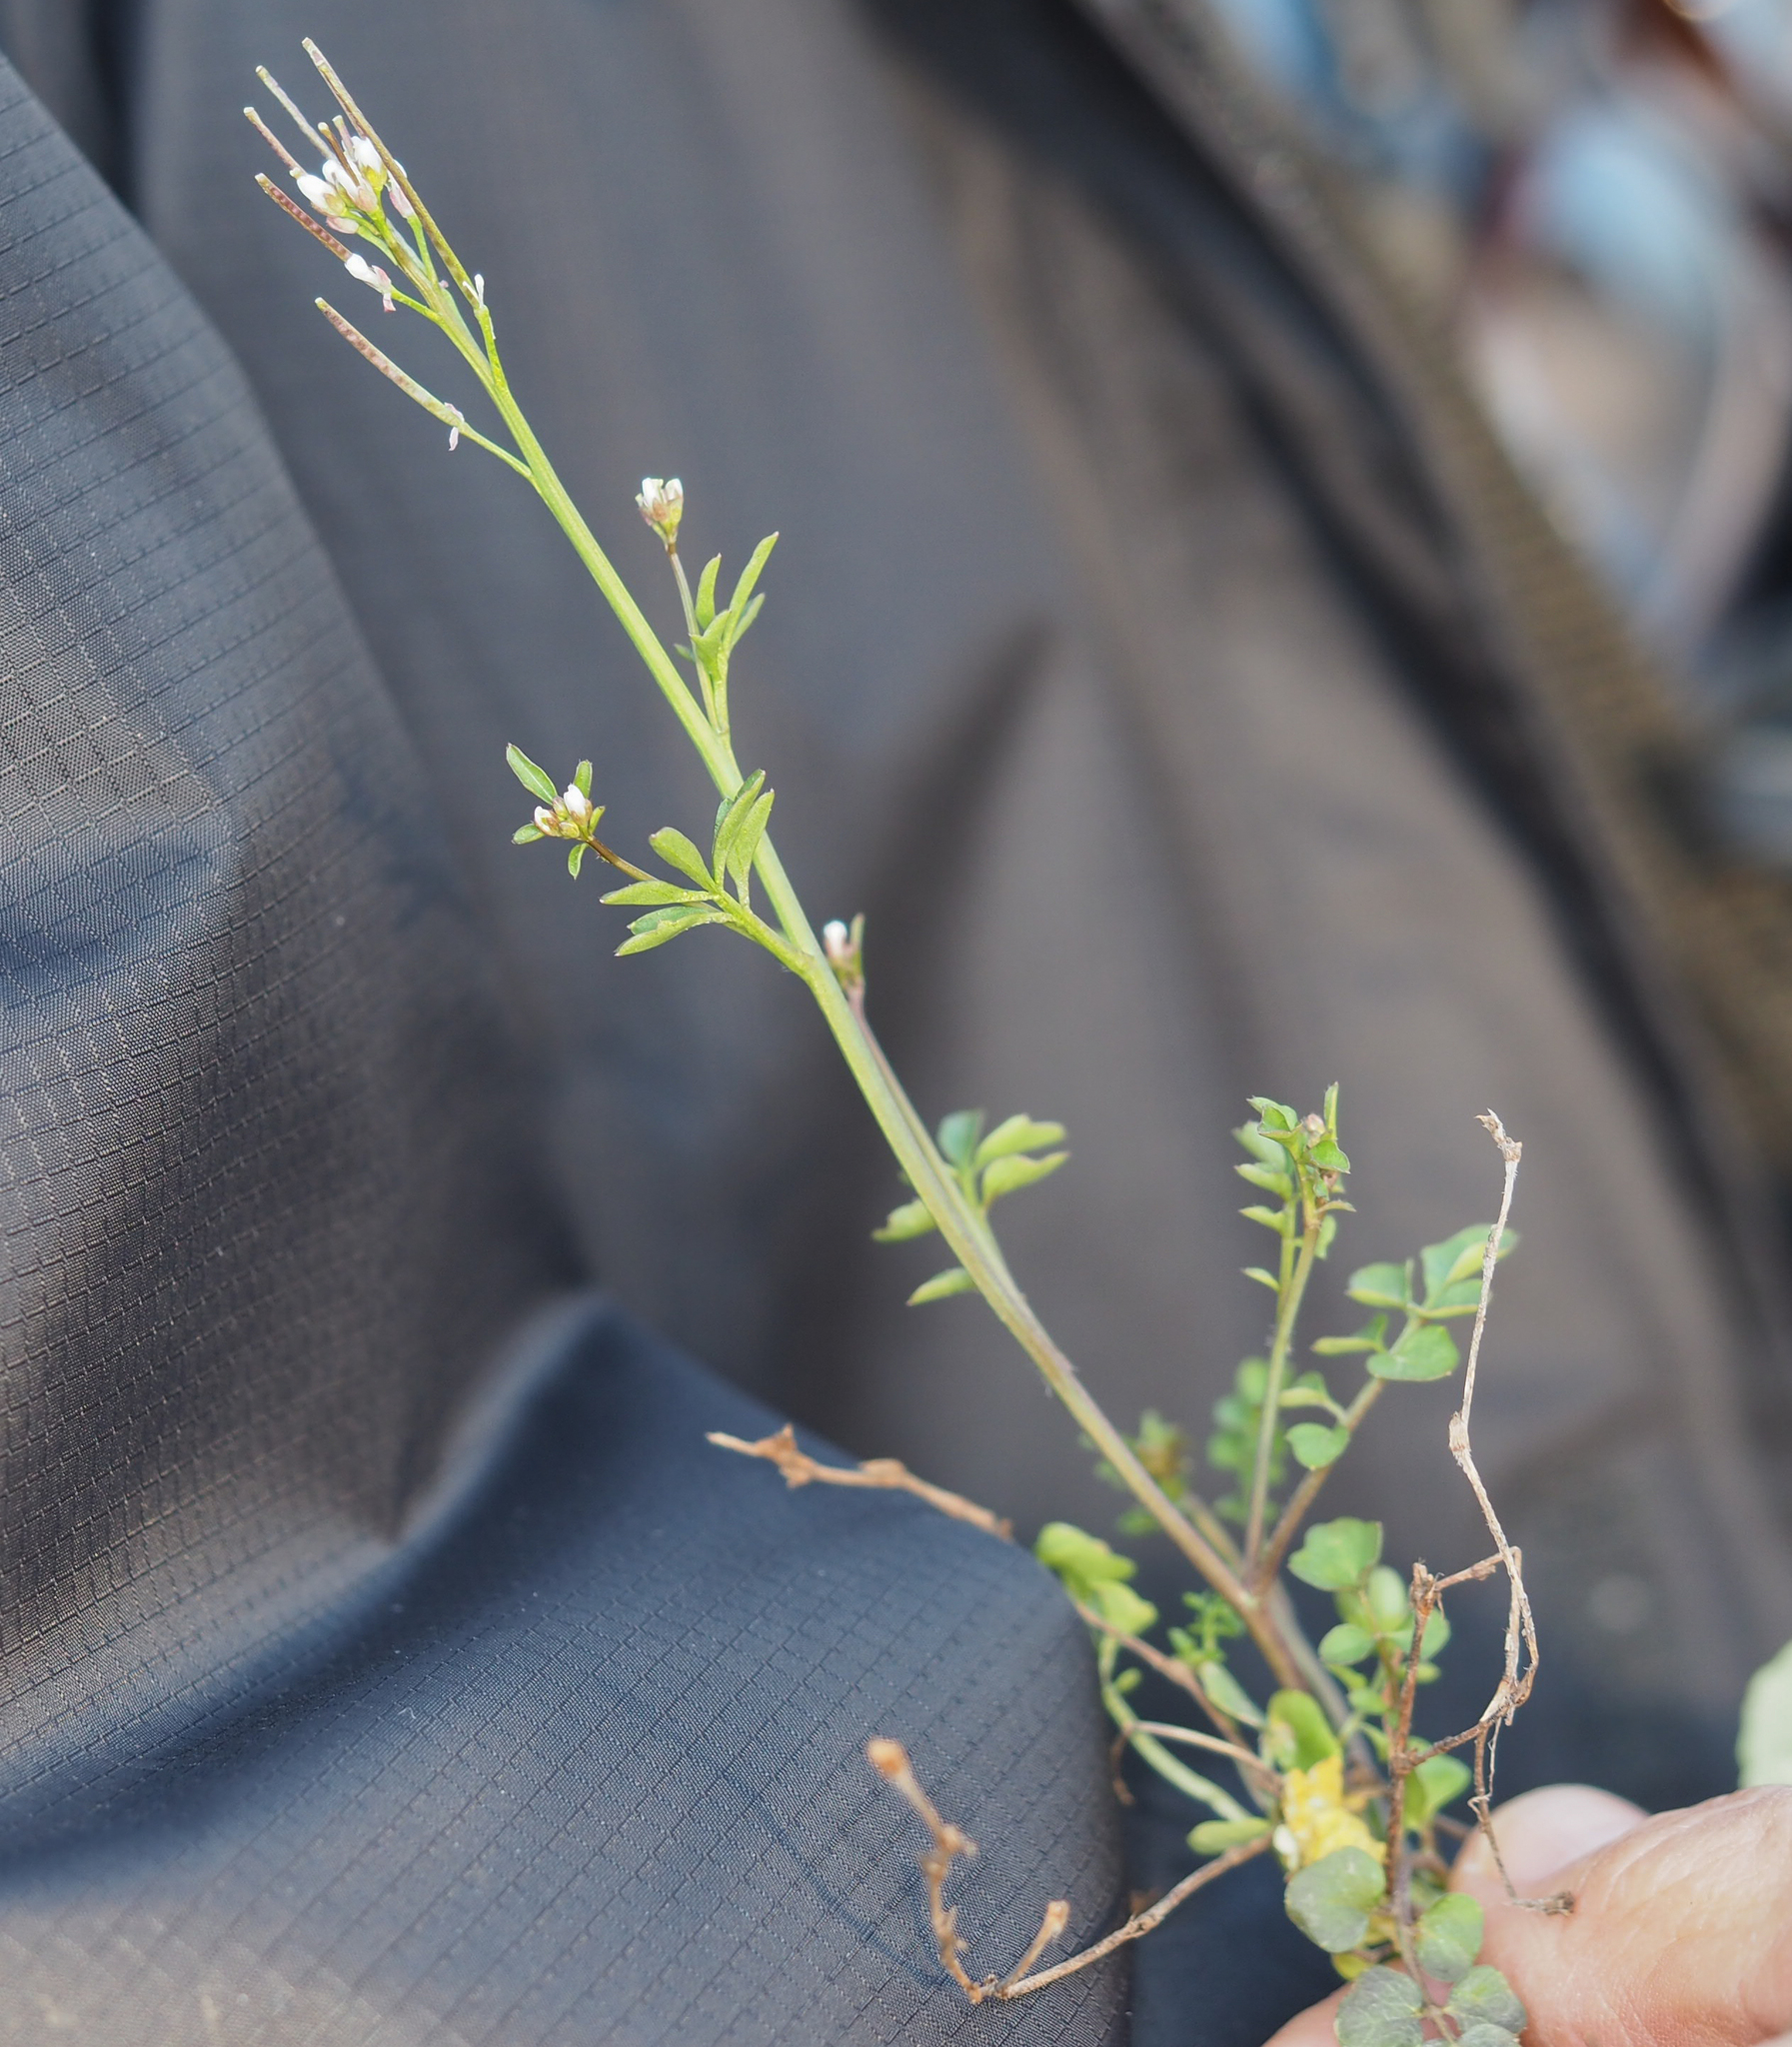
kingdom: Plantae
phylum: Tracheophyta
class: Magnoliopsida
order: Brassicales
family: Brassicaceae
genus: Cardamine
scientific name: Cardamine hirsuta
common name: Hairy bittercress
